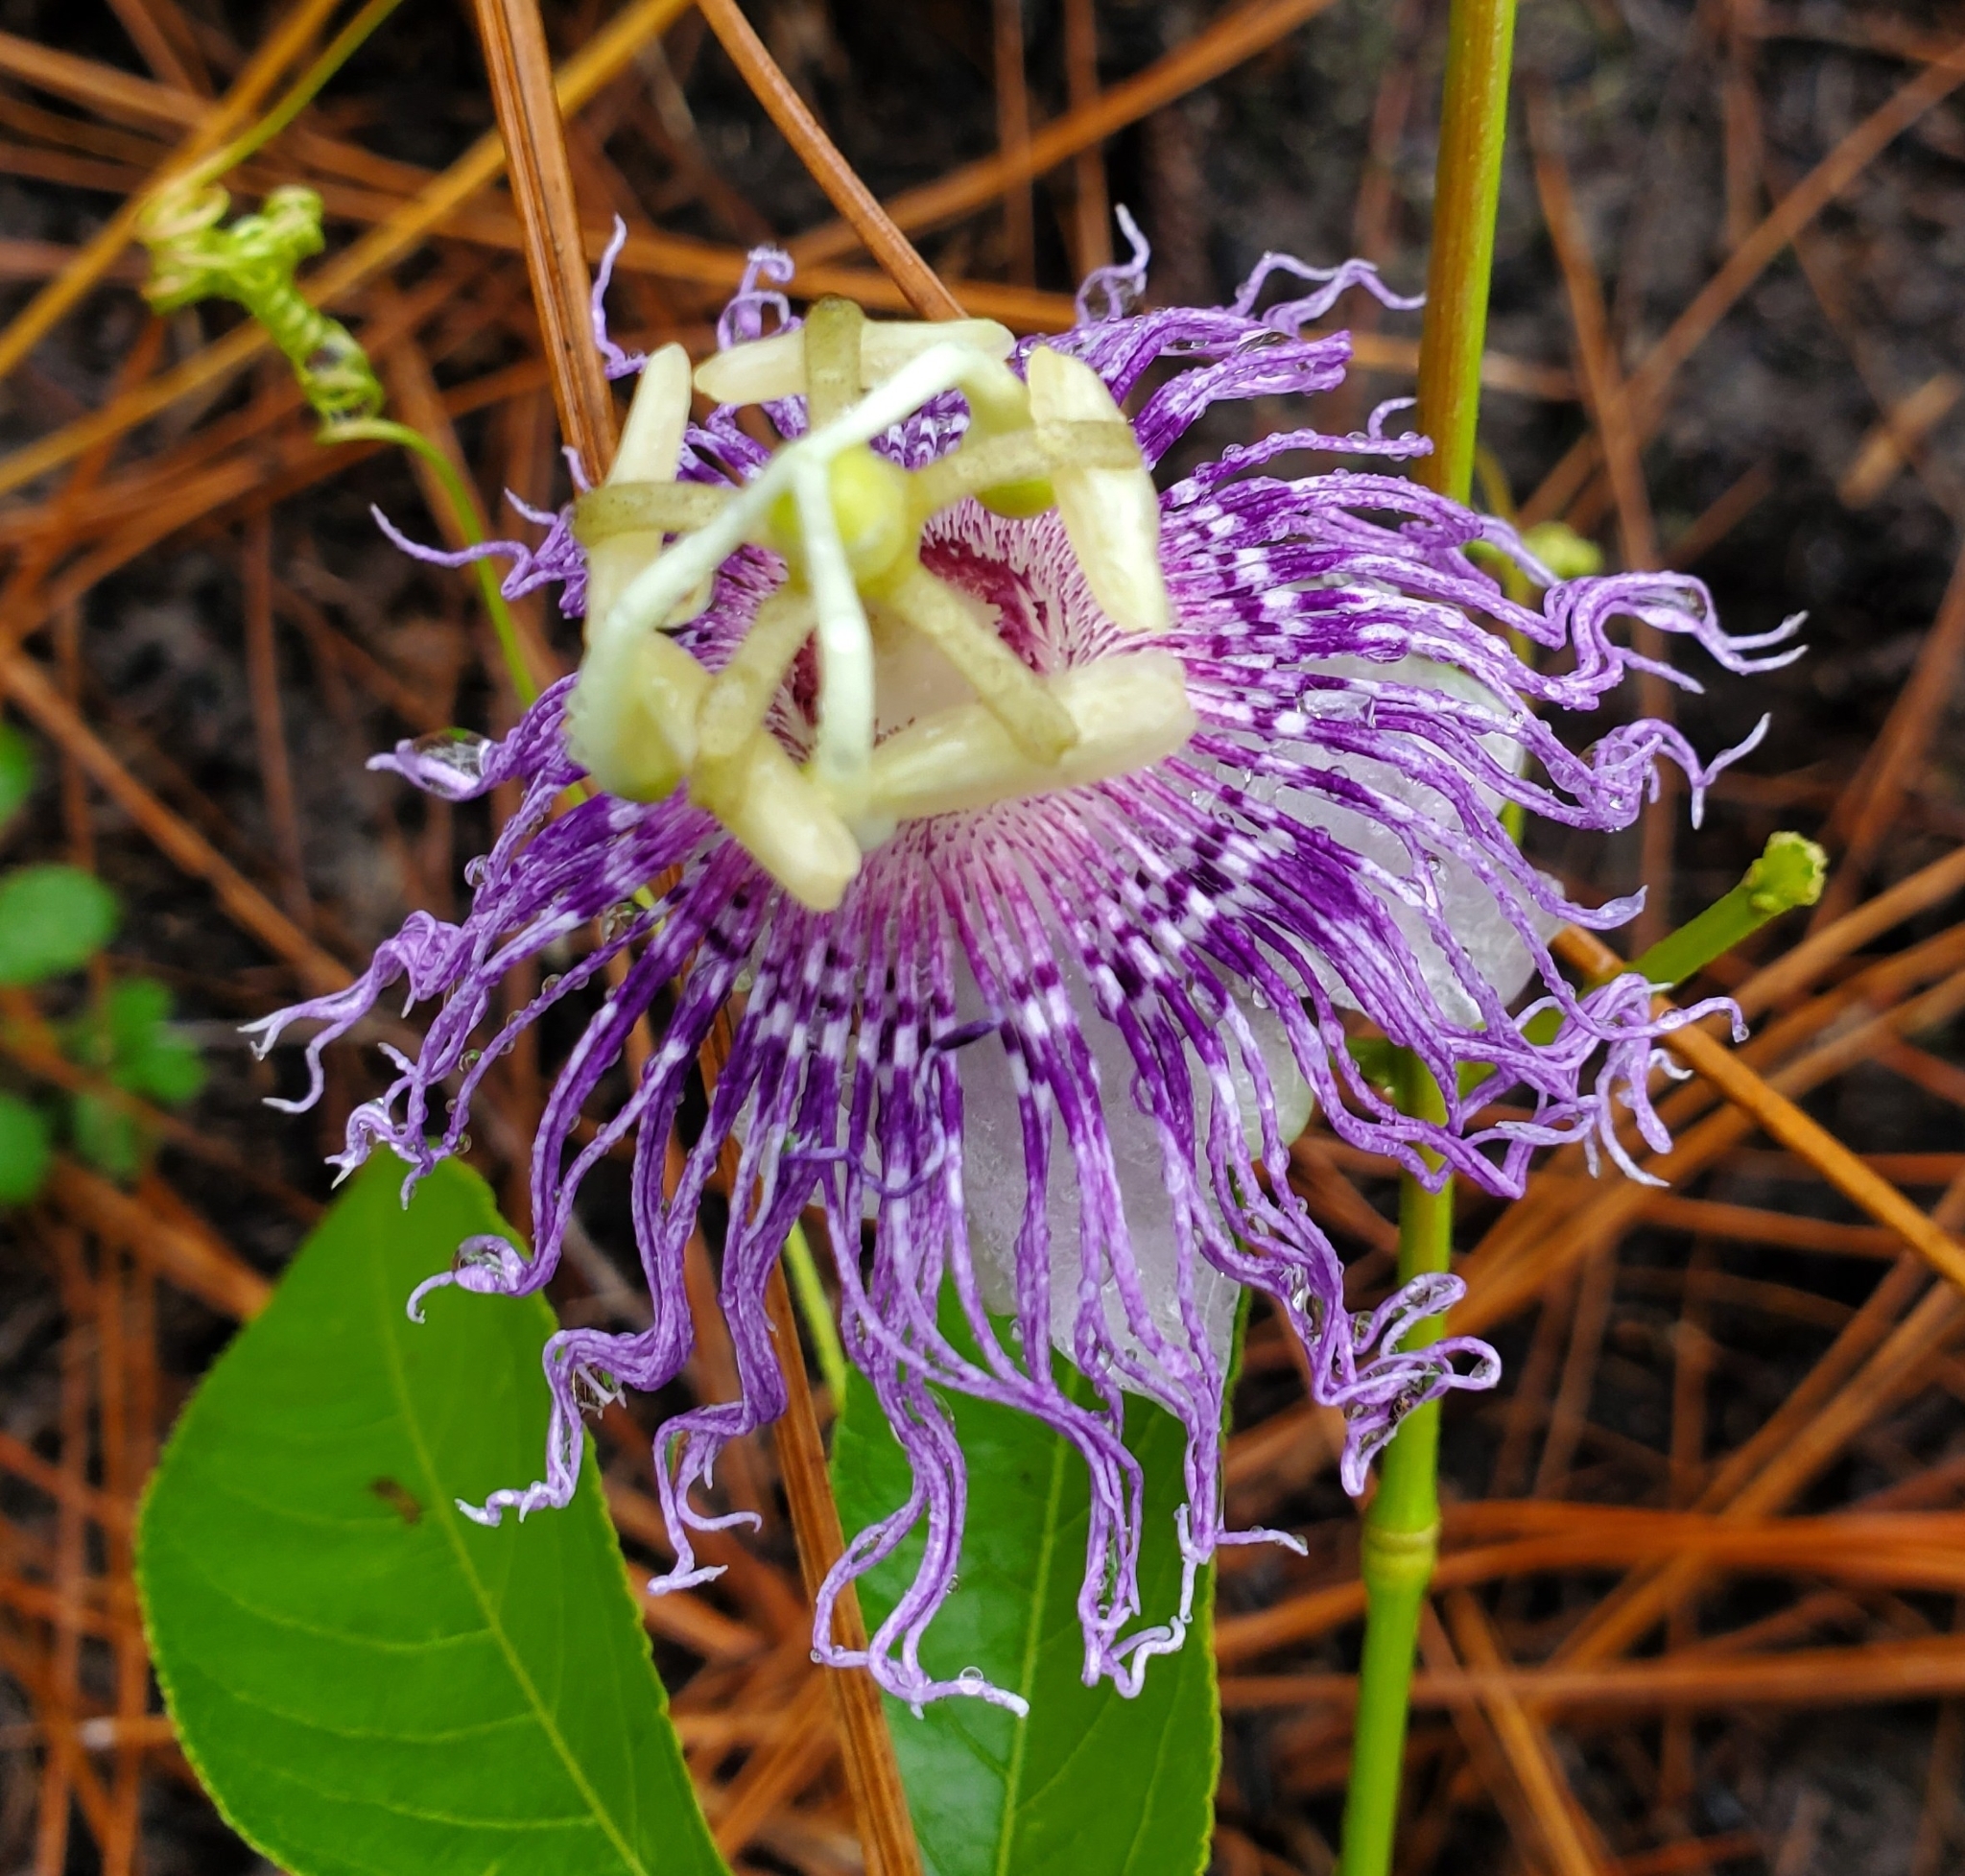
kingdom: Plantae
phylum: Tracheophyta
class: Magnoliopsida
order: Malpighiales
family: Passifloraceae
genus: Passiflora
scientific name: Passiflora incarnata
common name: Apricot-vine
